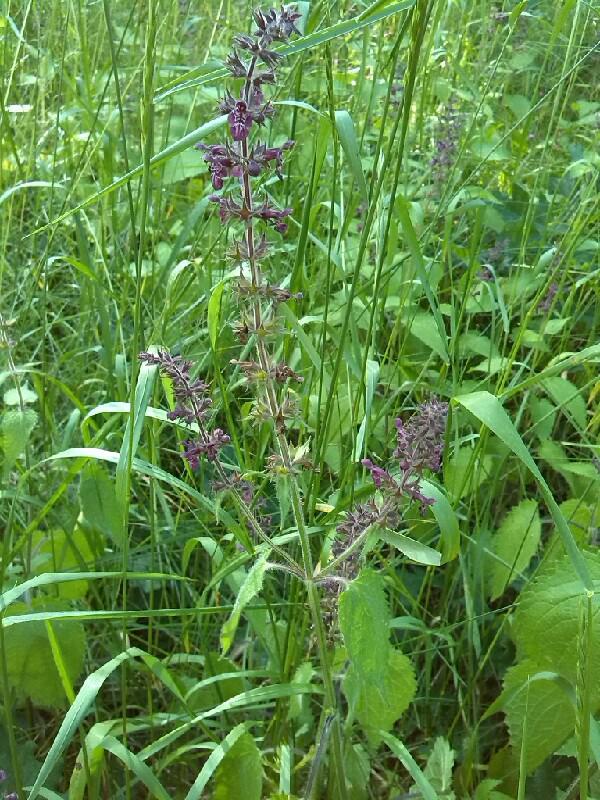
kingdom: Plantae
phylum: Tracheophyta
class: Magnoliopsida
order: Lamiales
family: Lamiaceae
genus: Stachys
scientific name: Stachys sylvatica
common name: Hedge woundwort
